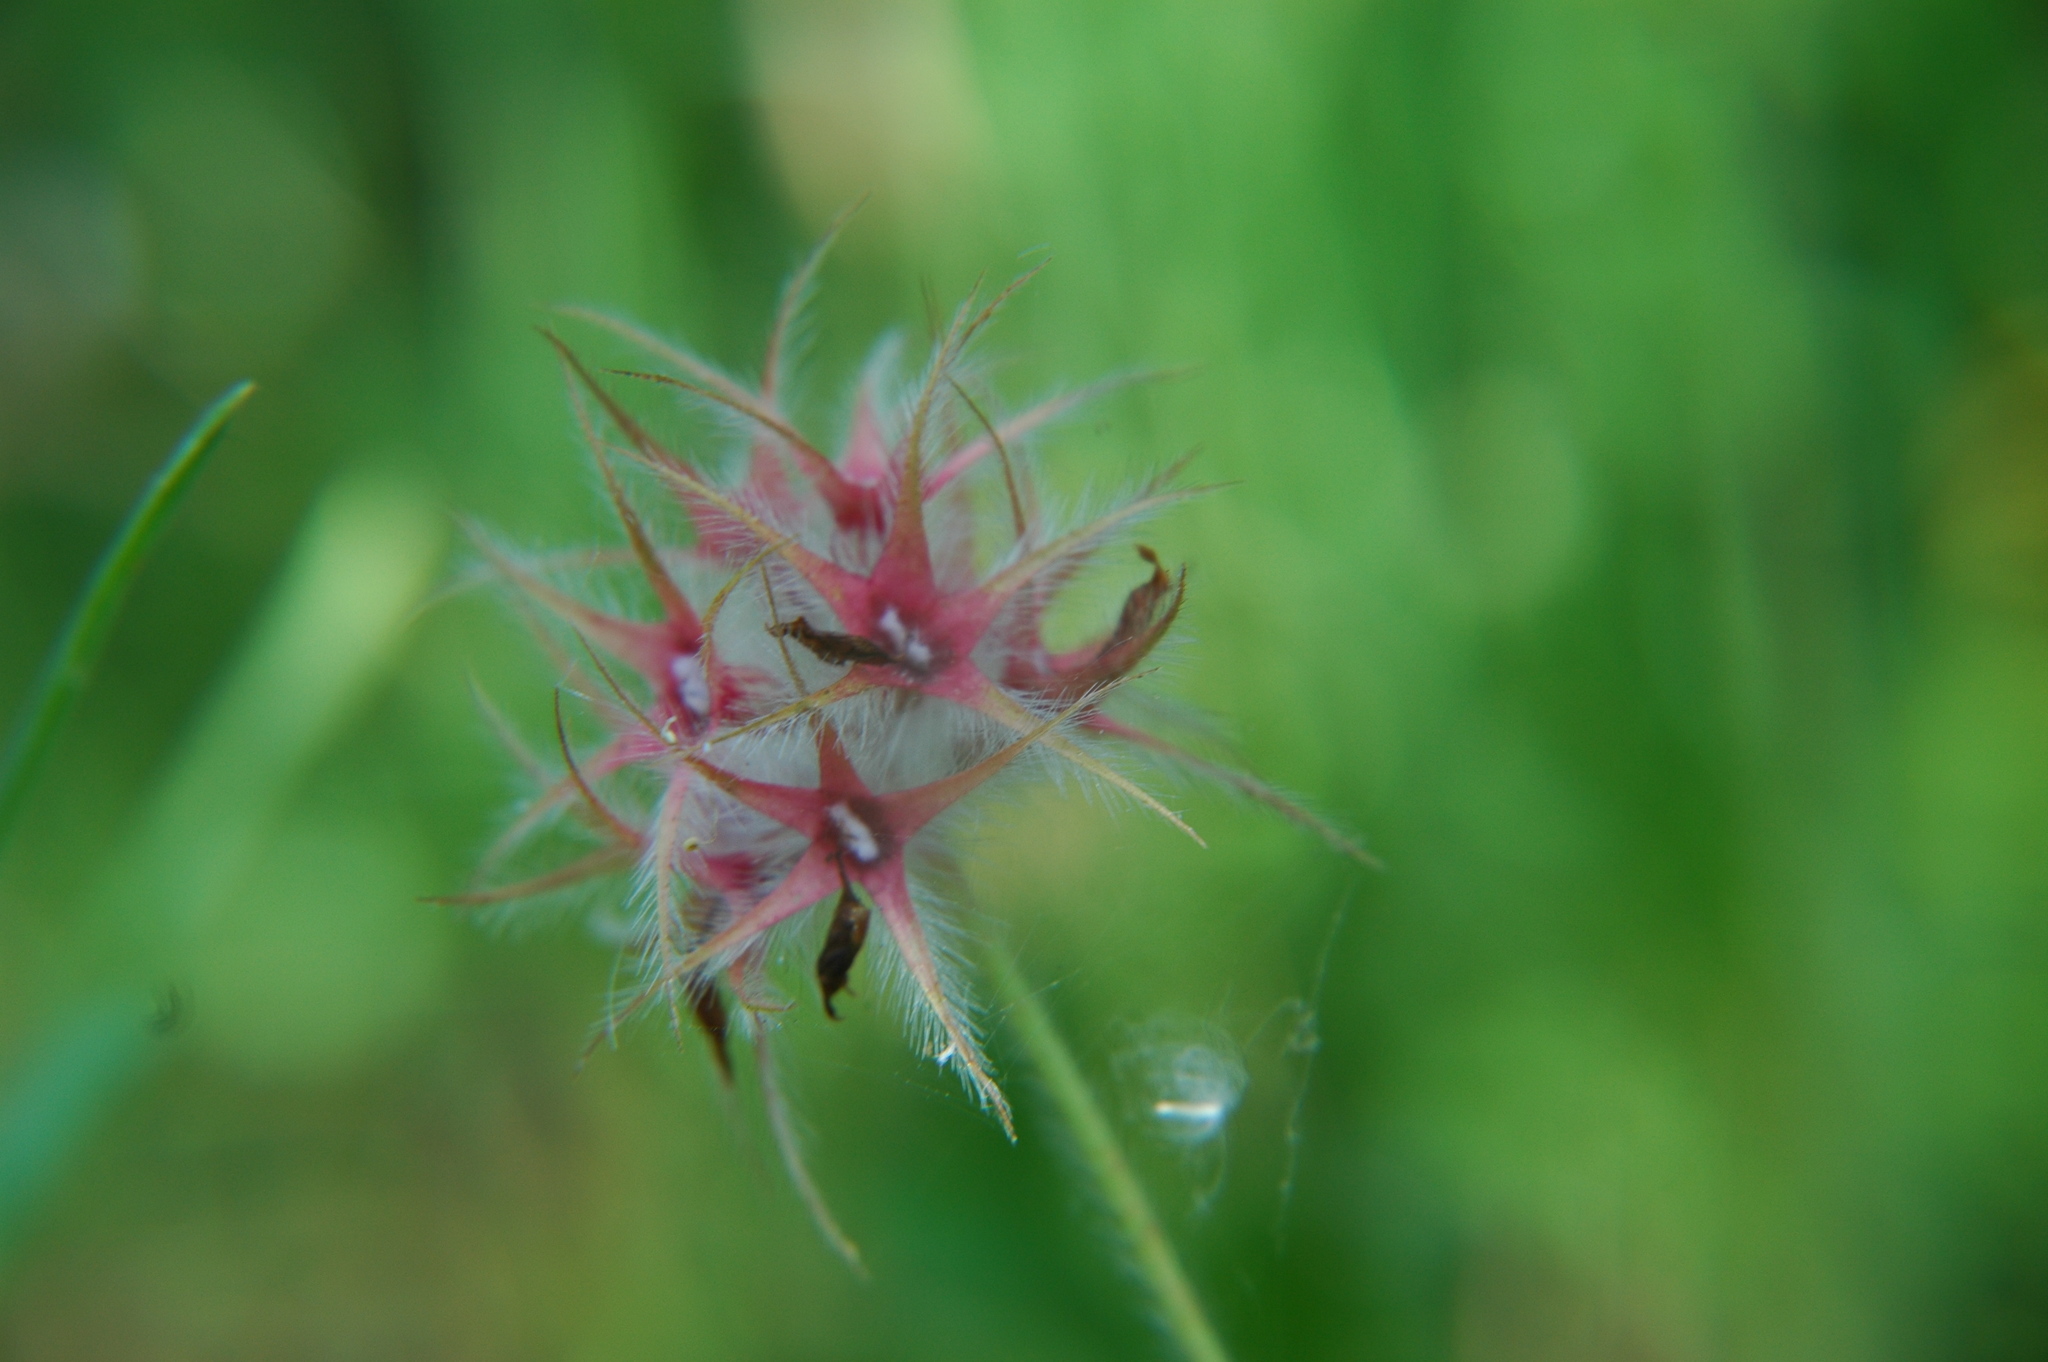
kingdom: Plantae
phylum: Tracheophyta
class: Magnoliopsida
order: Fabales
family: Fabaceae
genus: Trifolium
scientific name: Trifolium stellatum
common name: Starry clover
